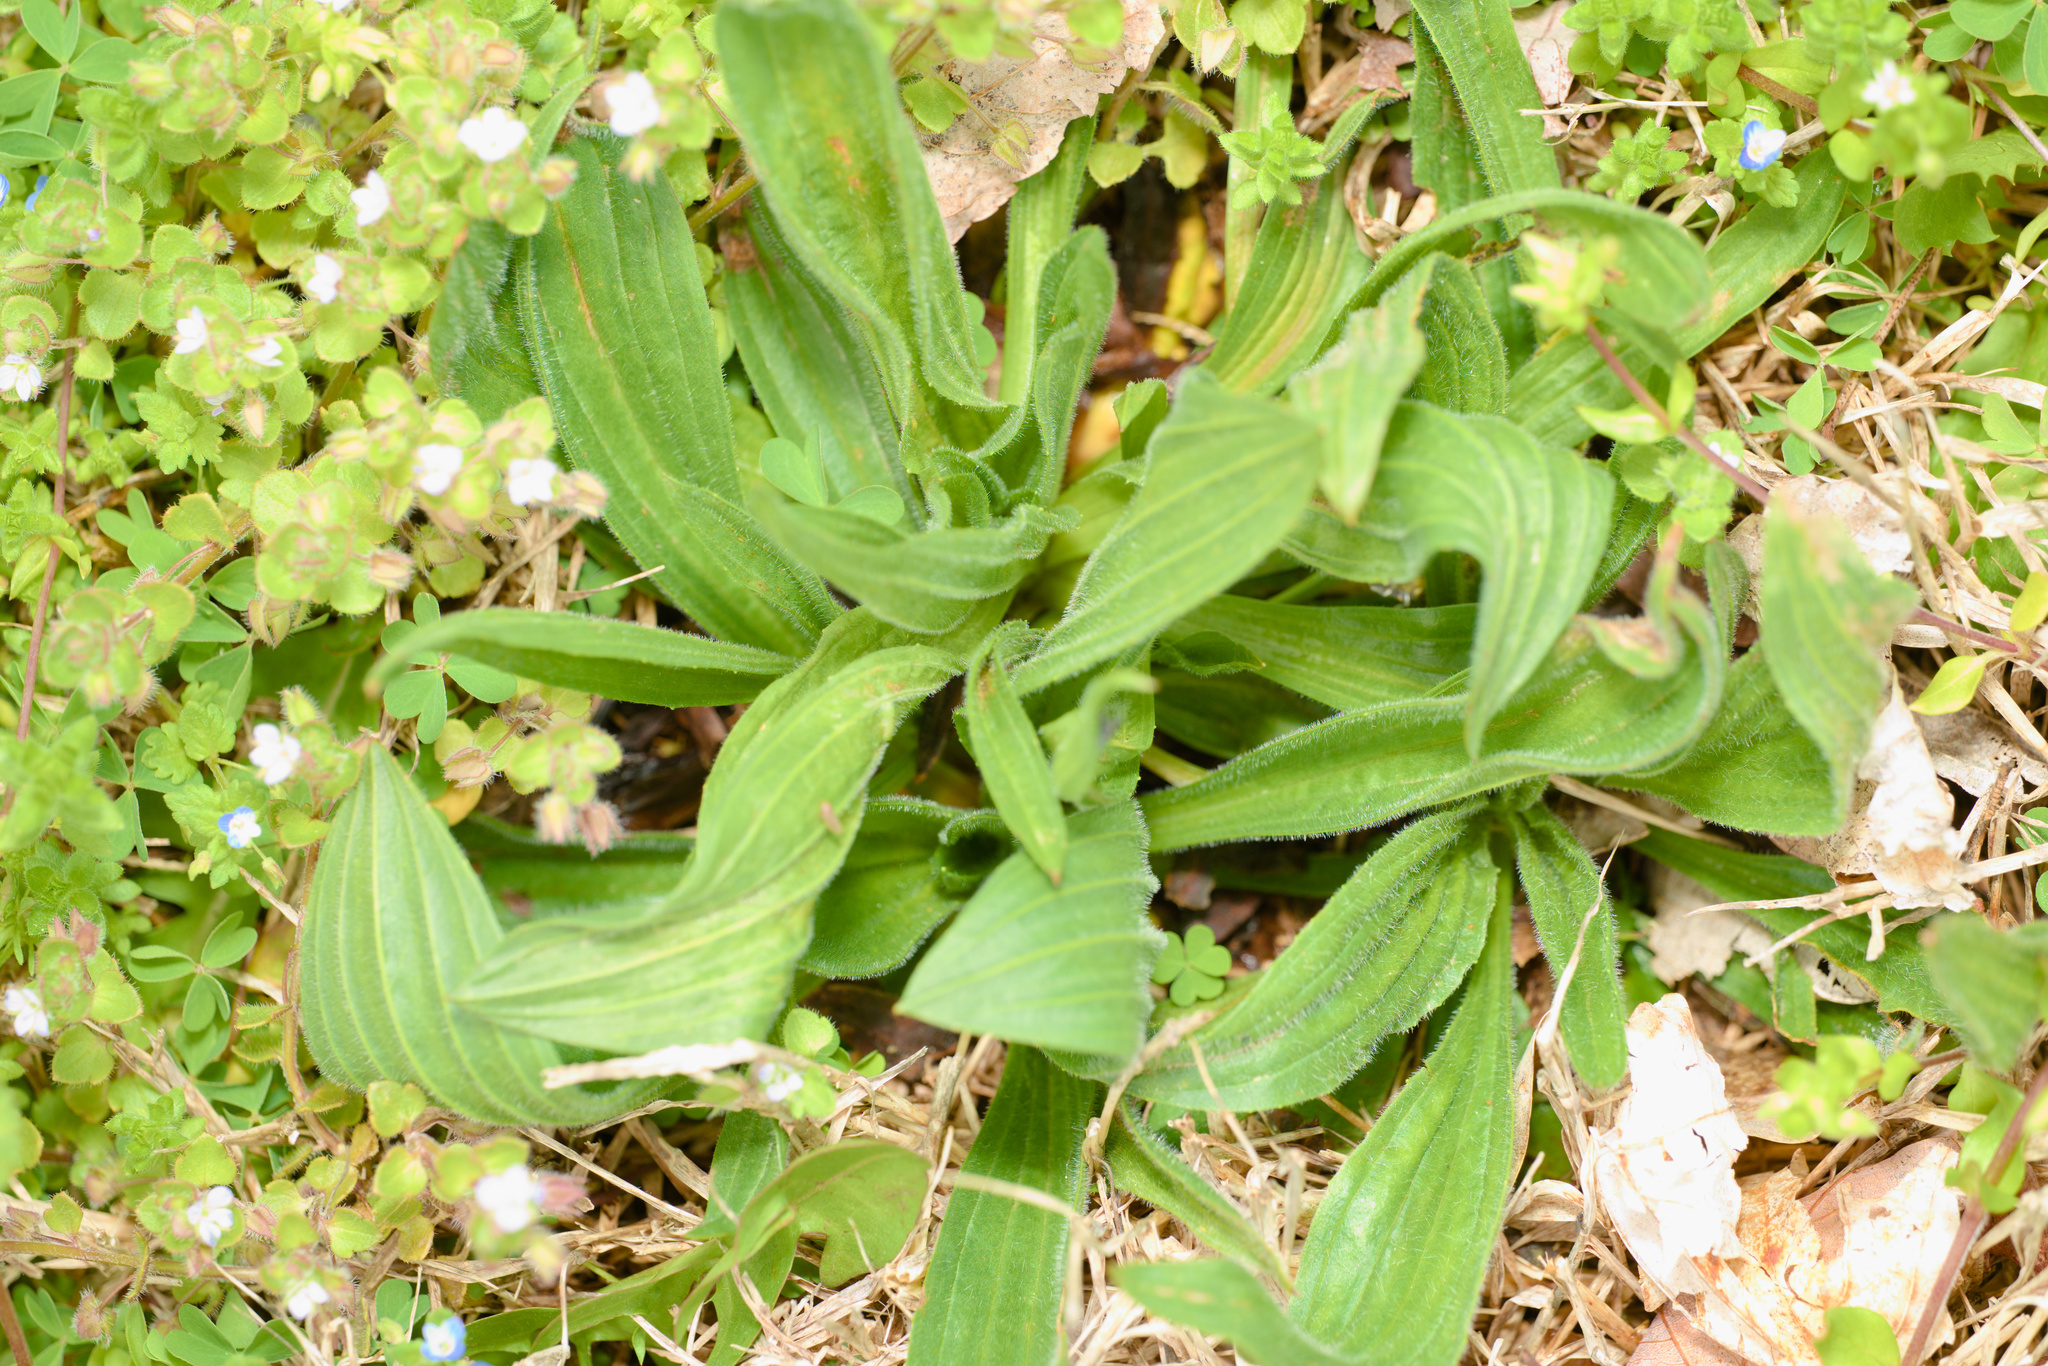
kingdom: Plantae
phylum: Tracheophyta
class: Magnoliopsida
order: Lamiales
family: Plantaginaceae
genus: Plantago
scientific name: Plantago lanceolata
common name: Ribwort plantain
